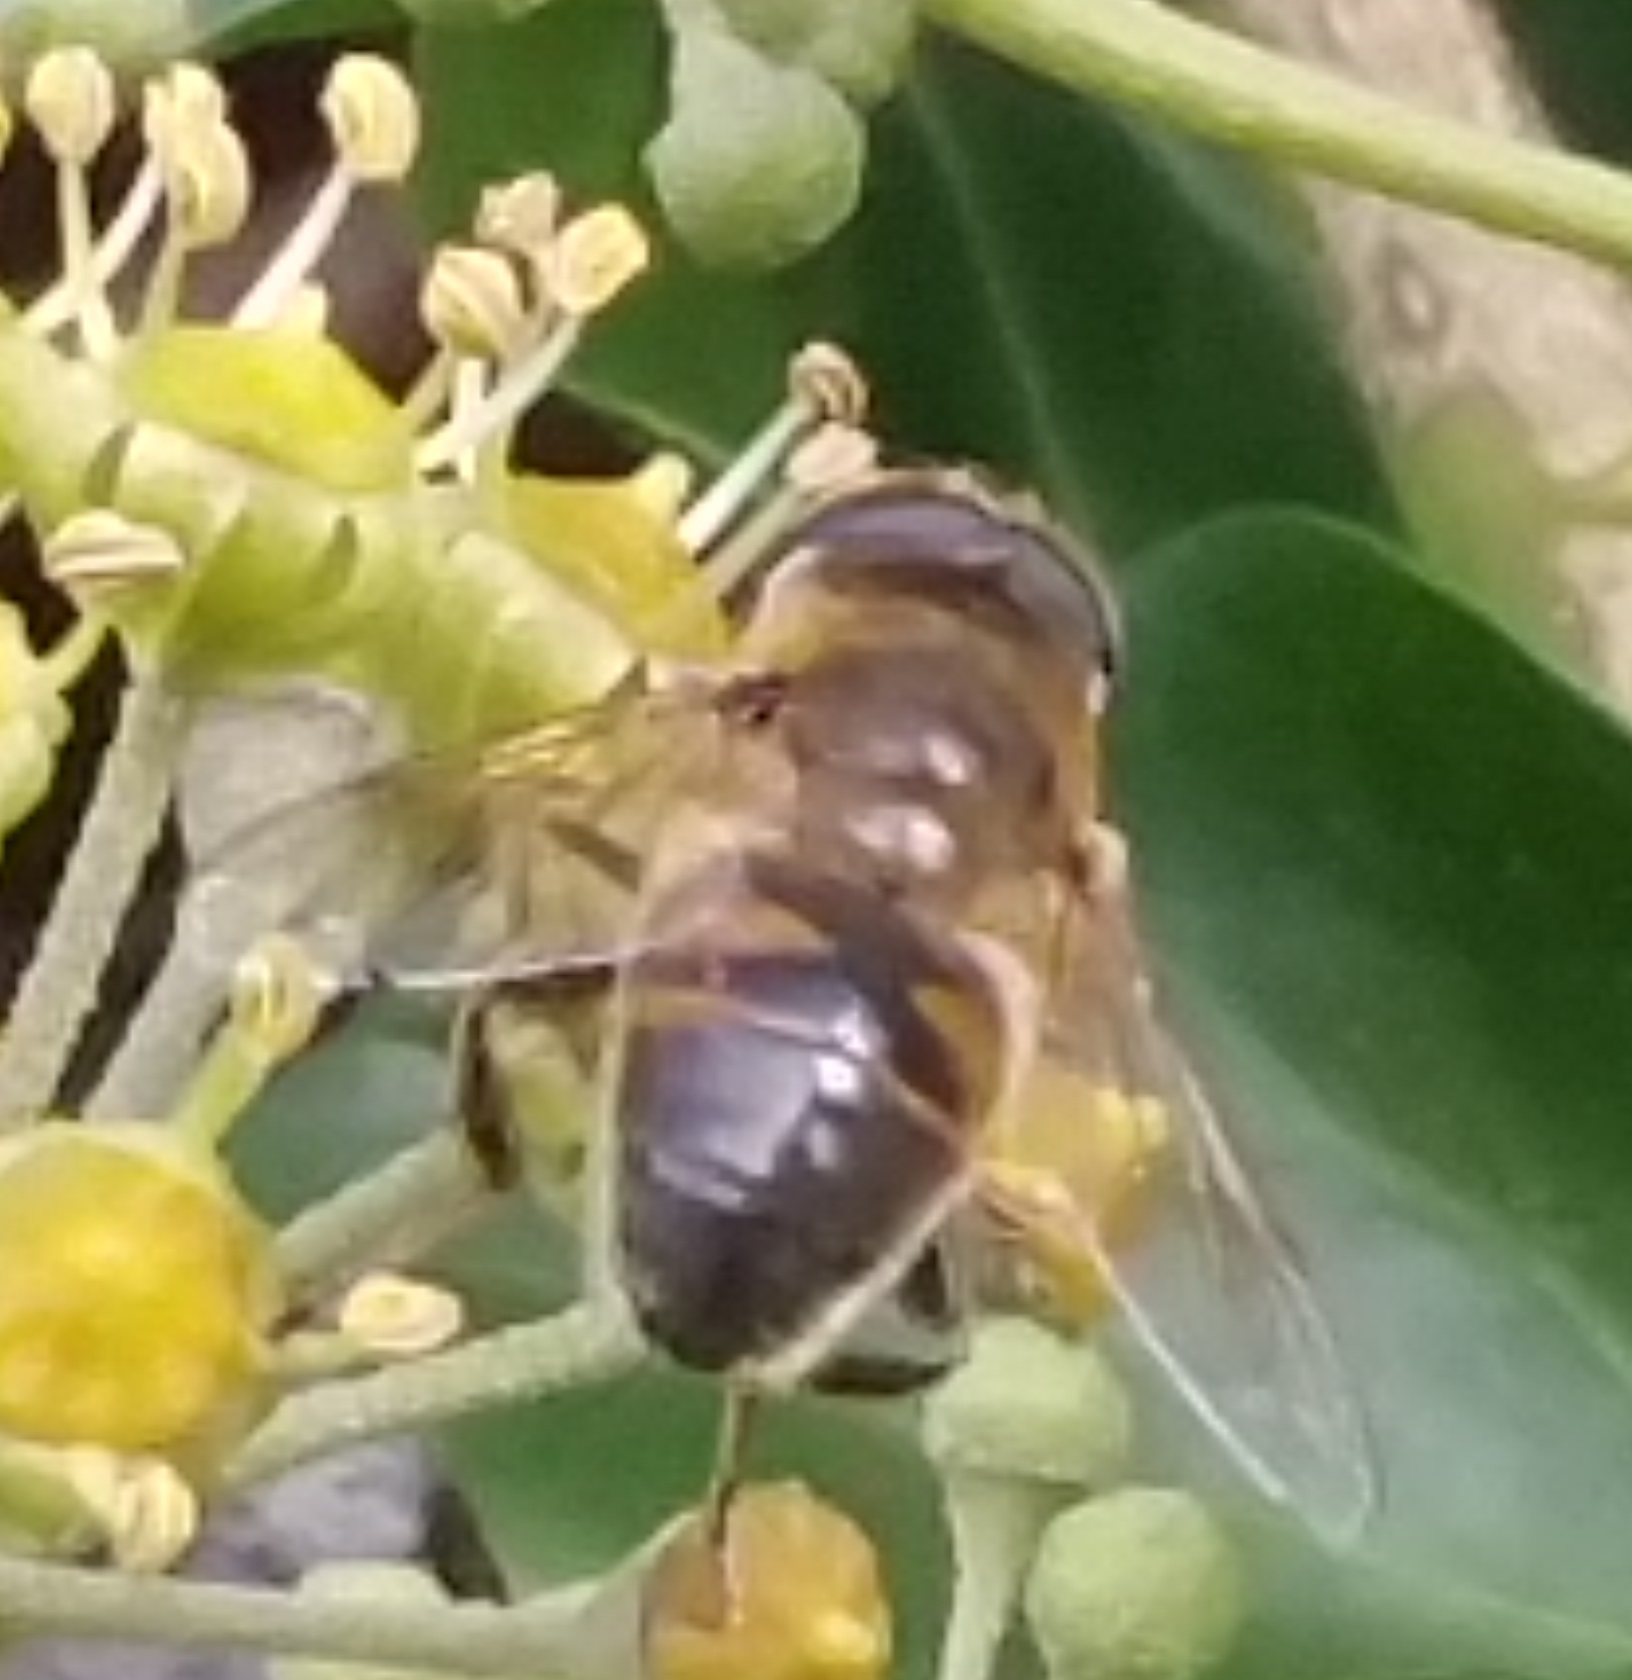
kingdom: Animalia
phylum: Arthropoda
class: Insecta
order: Diptera
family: Syrphidae
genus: Eristalis
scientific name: Eristalis tenax
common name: Drone fly
